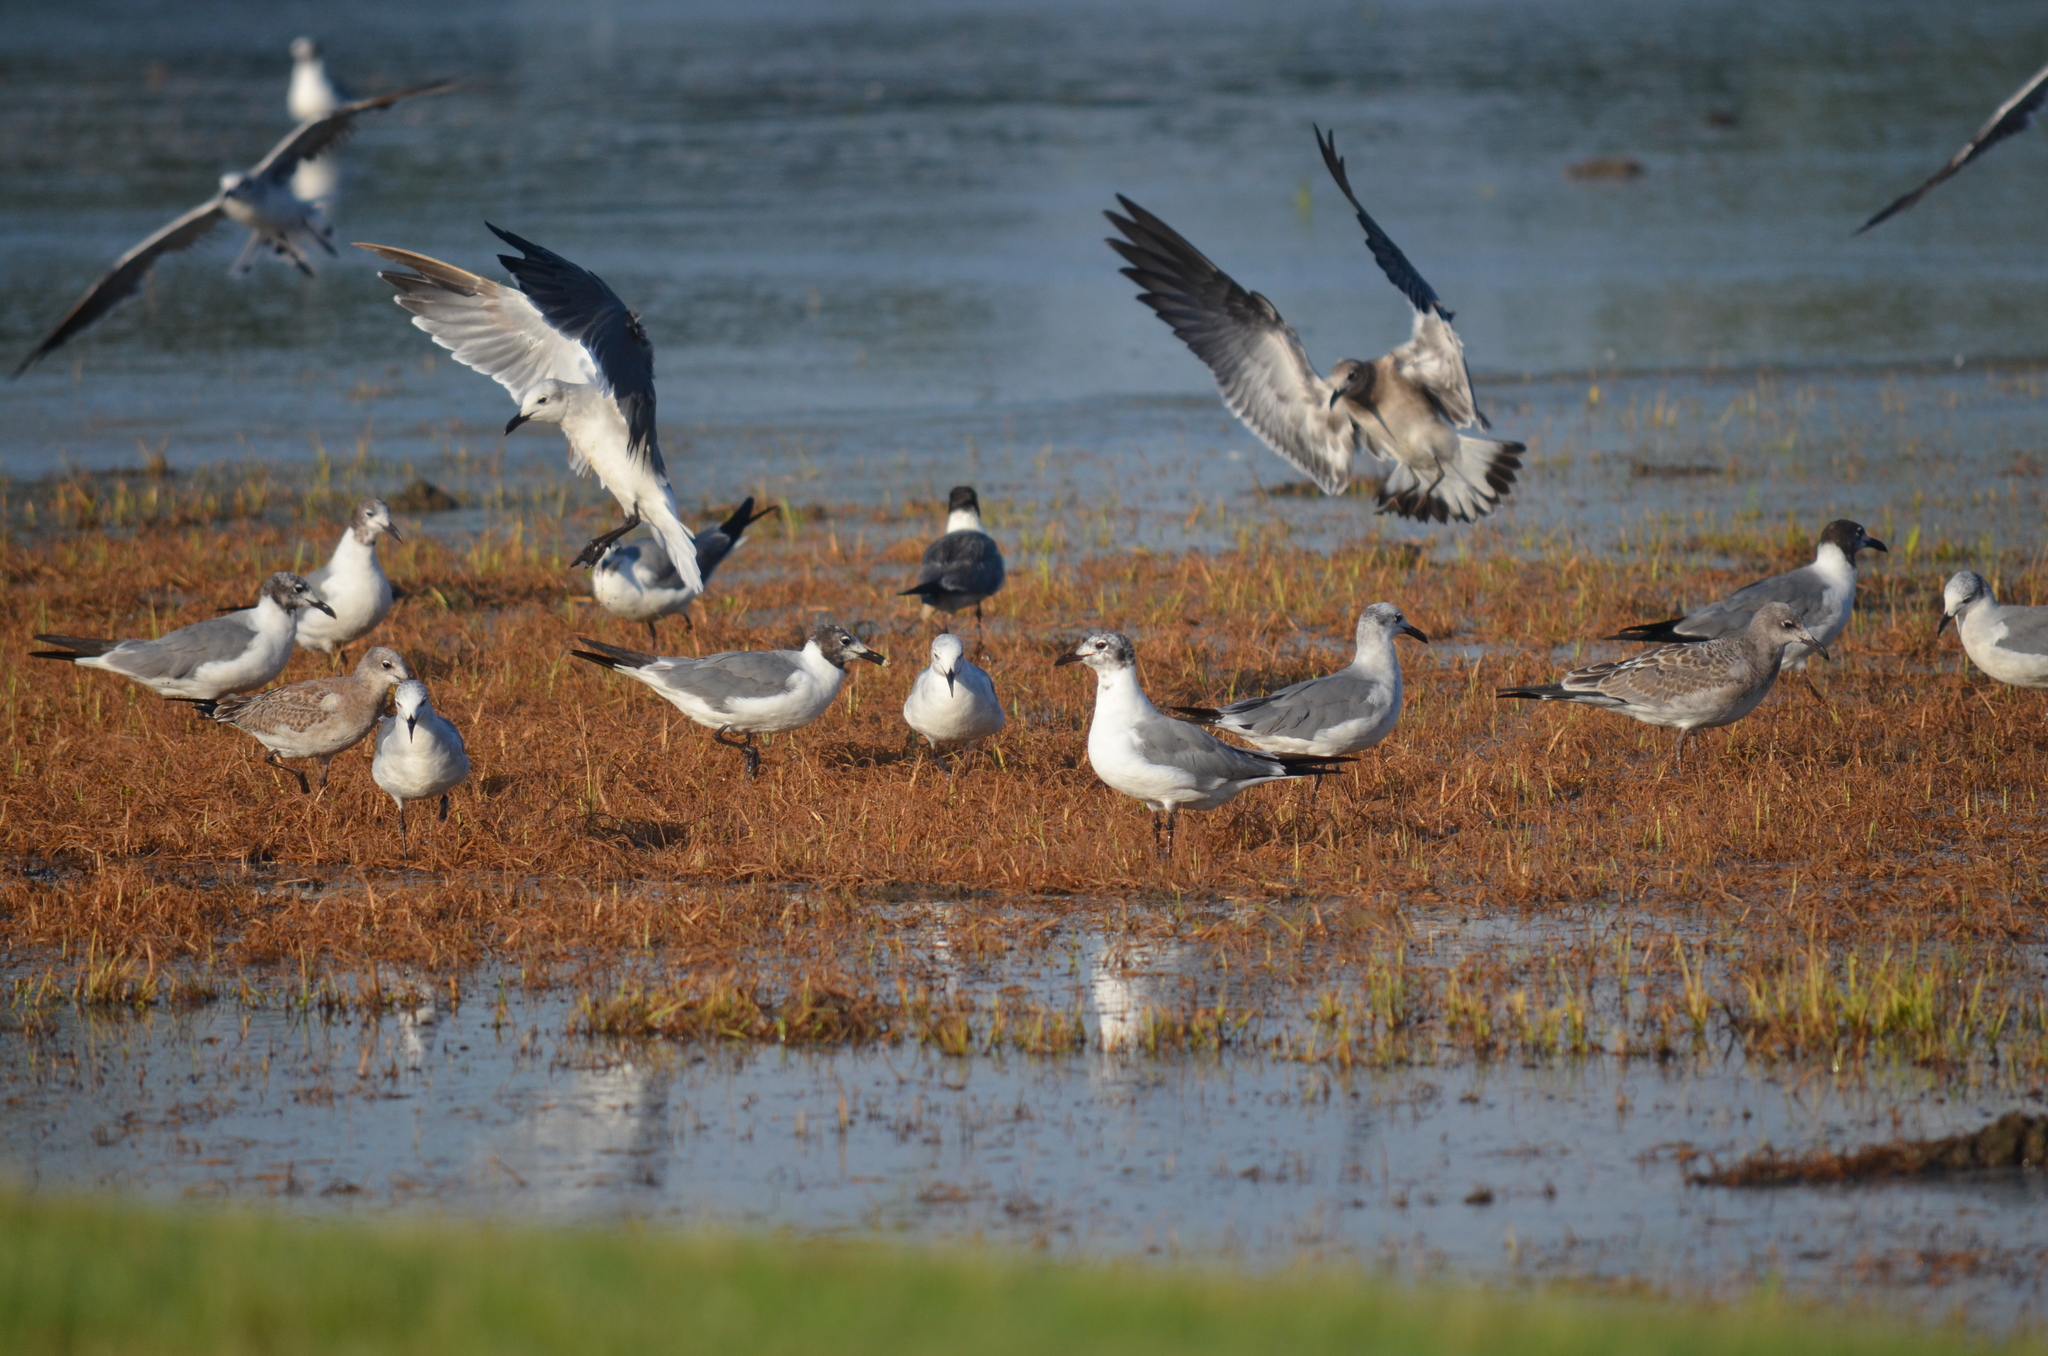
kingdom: Animalia
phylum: Chordata
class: Aves
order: Charadriiformes
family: Laridae
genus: Leucophaeus
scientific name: Leucophaeus atricilla
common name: Laughing gull
